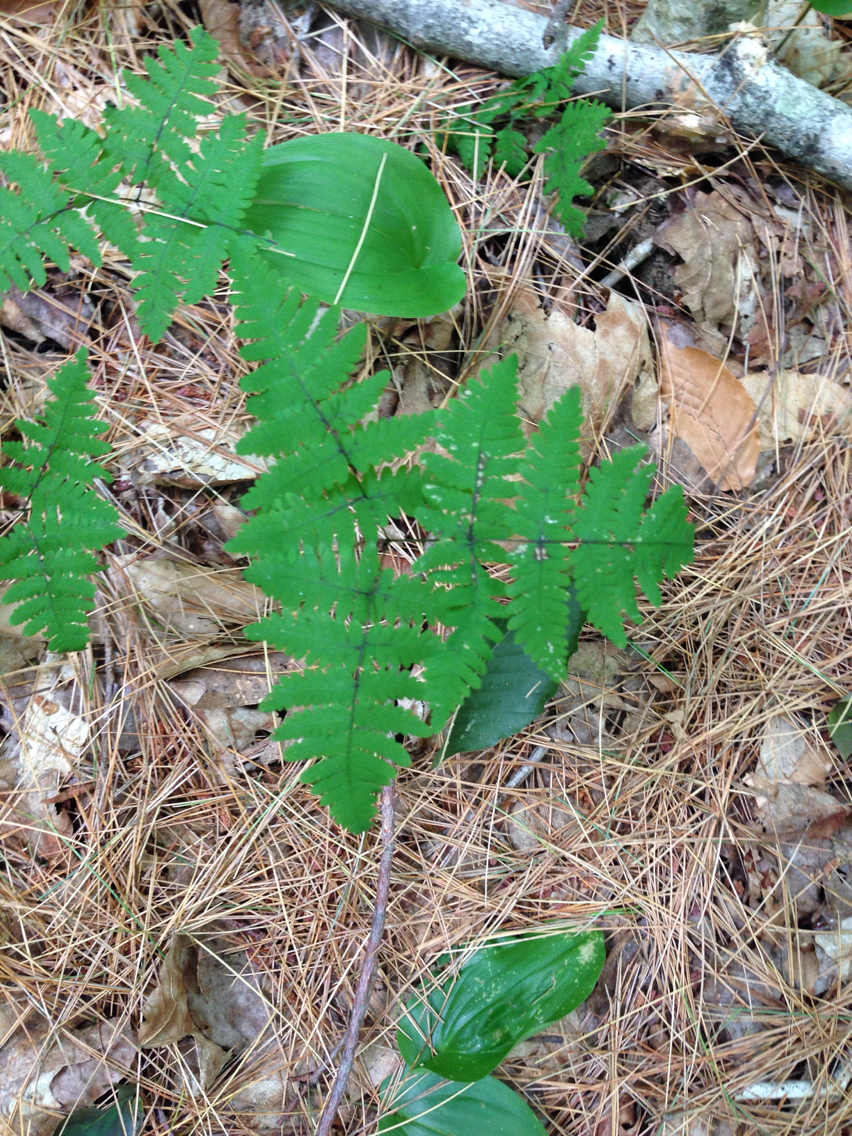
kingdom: Plantae
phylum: Tracheophyta
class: Polypodiopsida
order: Polypodiales
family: Cystopteridaceae
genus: Gymnocarpium
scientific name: Gymnocarpium dryopteris
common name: Oak fern
